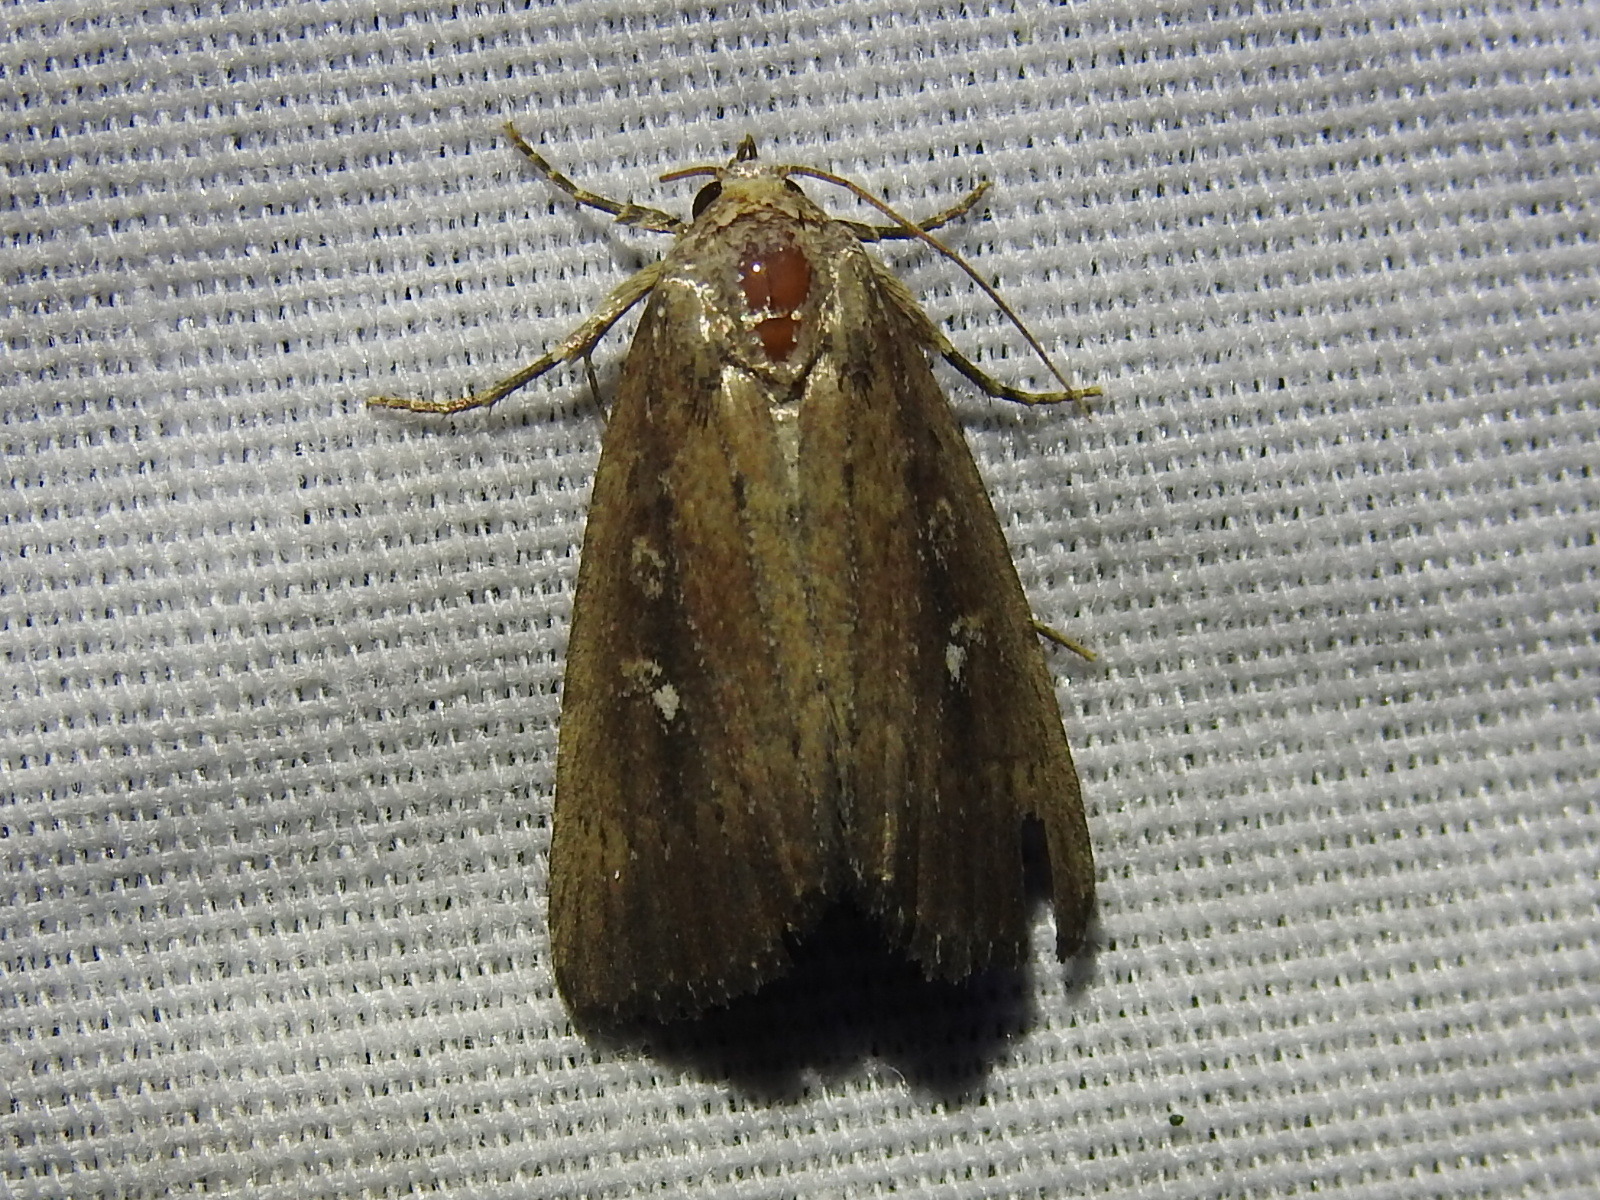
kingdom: Animalia
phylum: Arthropoda
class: Insecta
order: Lepidoptera
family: Noctuidae
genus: Condica
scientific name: Condica videns
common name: White-dotted groundling
